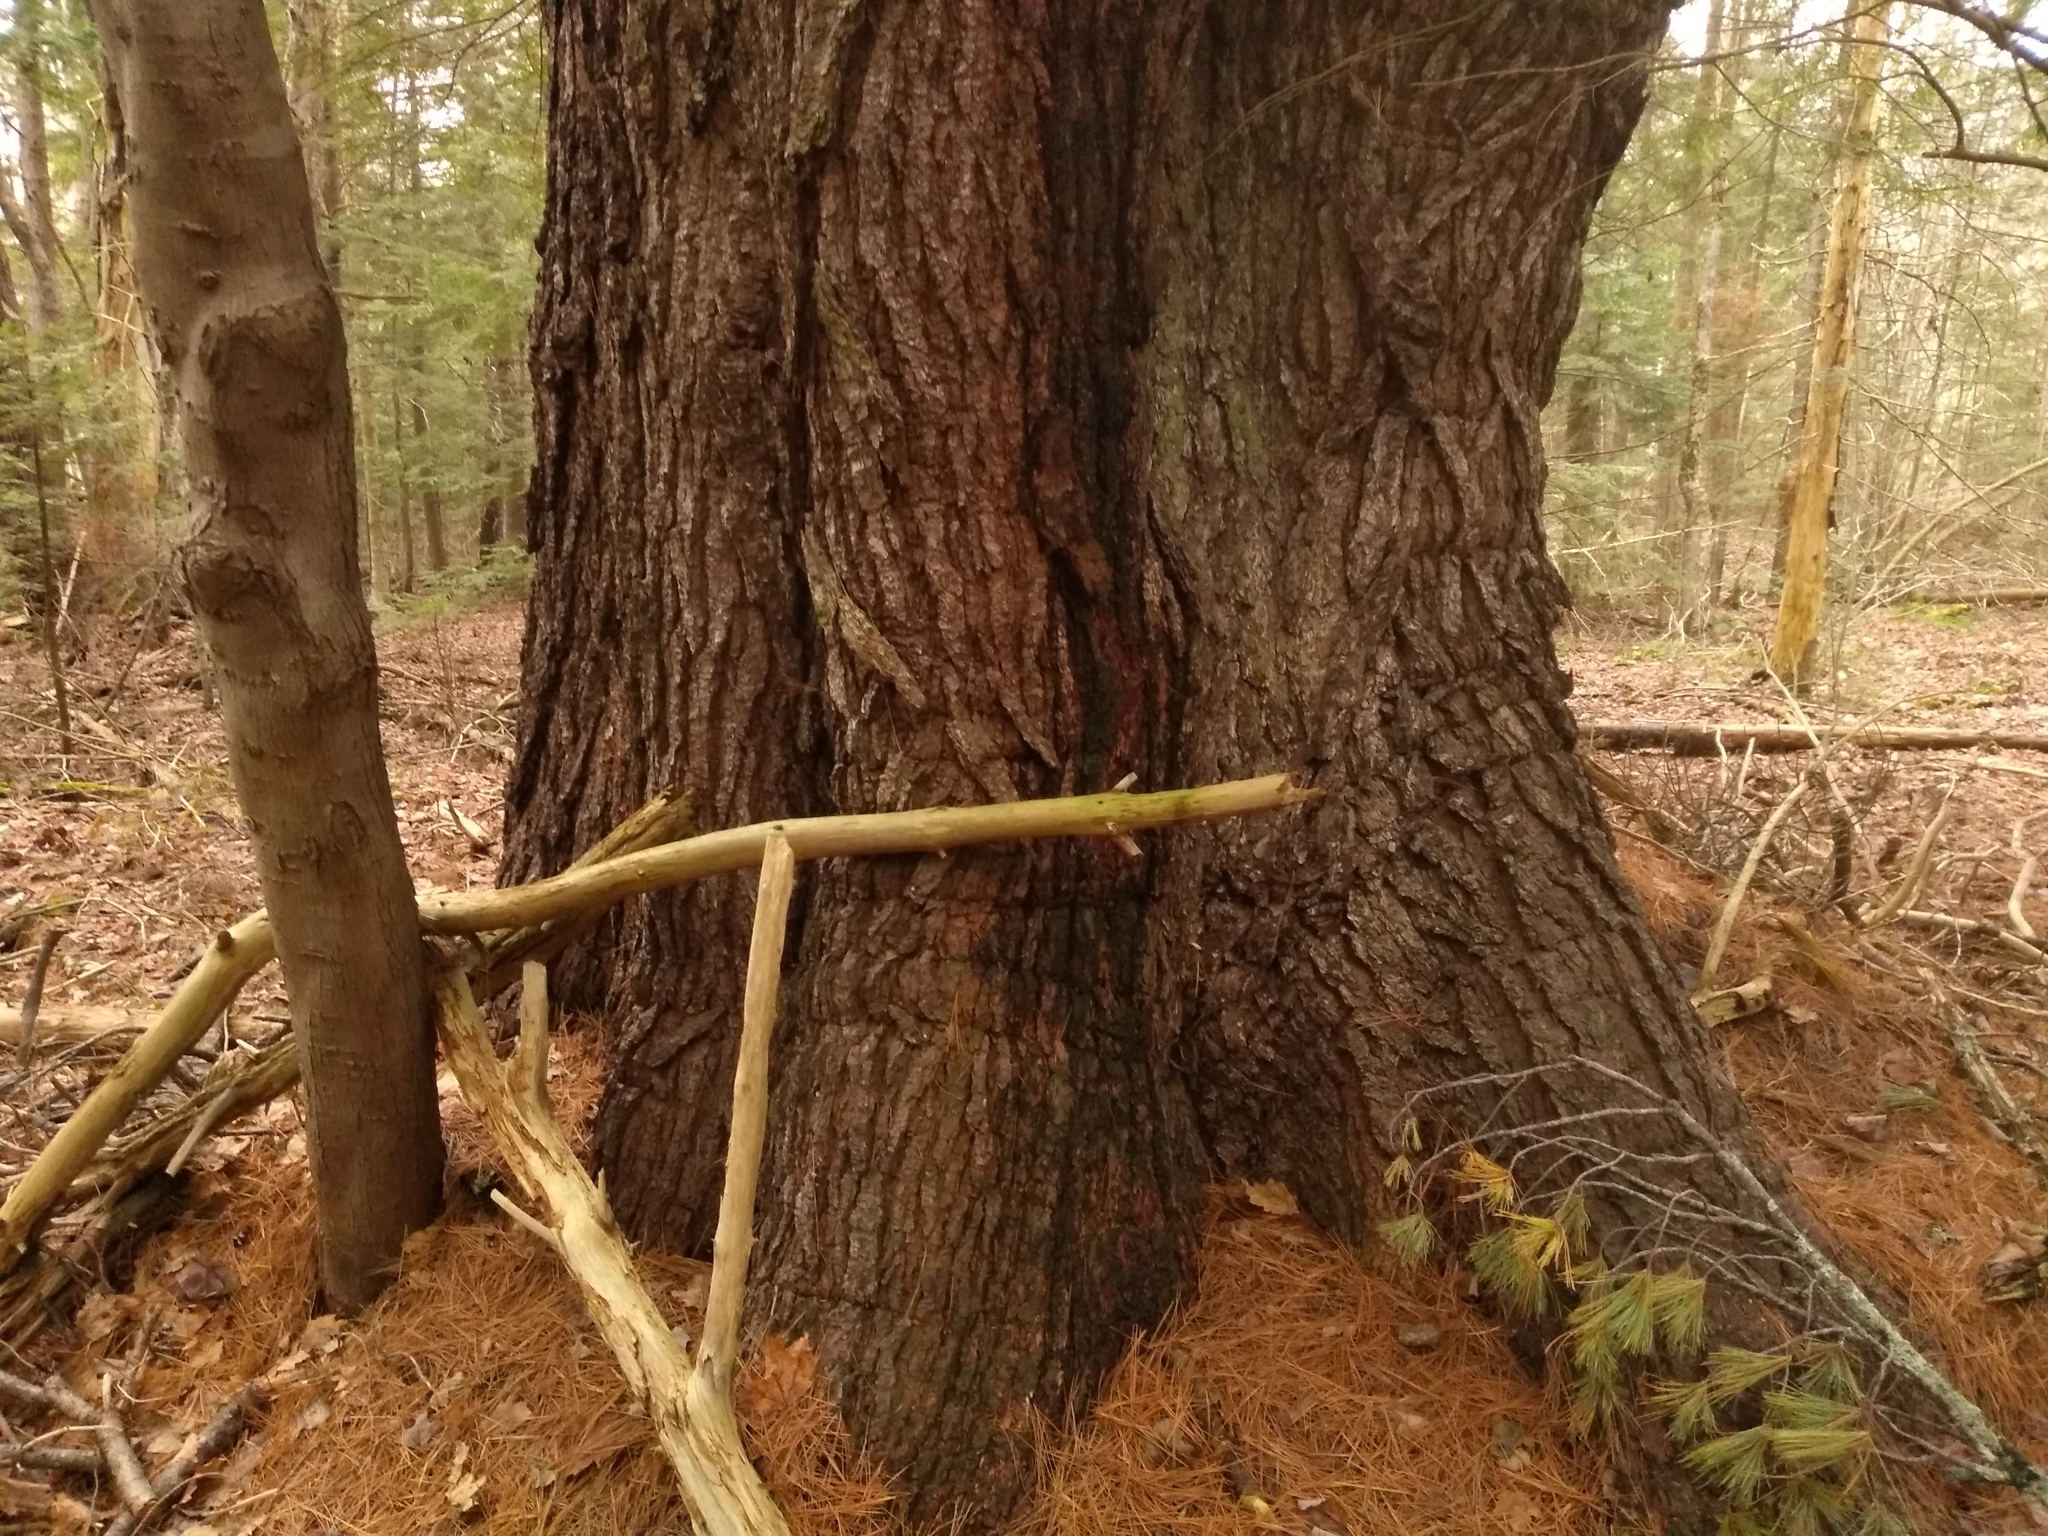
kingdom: Plantae
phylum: Tracheophyta
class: Pinopsida
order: Pinales
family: Pinaceae
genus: Pinus
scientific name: Pinus strobus
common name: Weymouth pine
